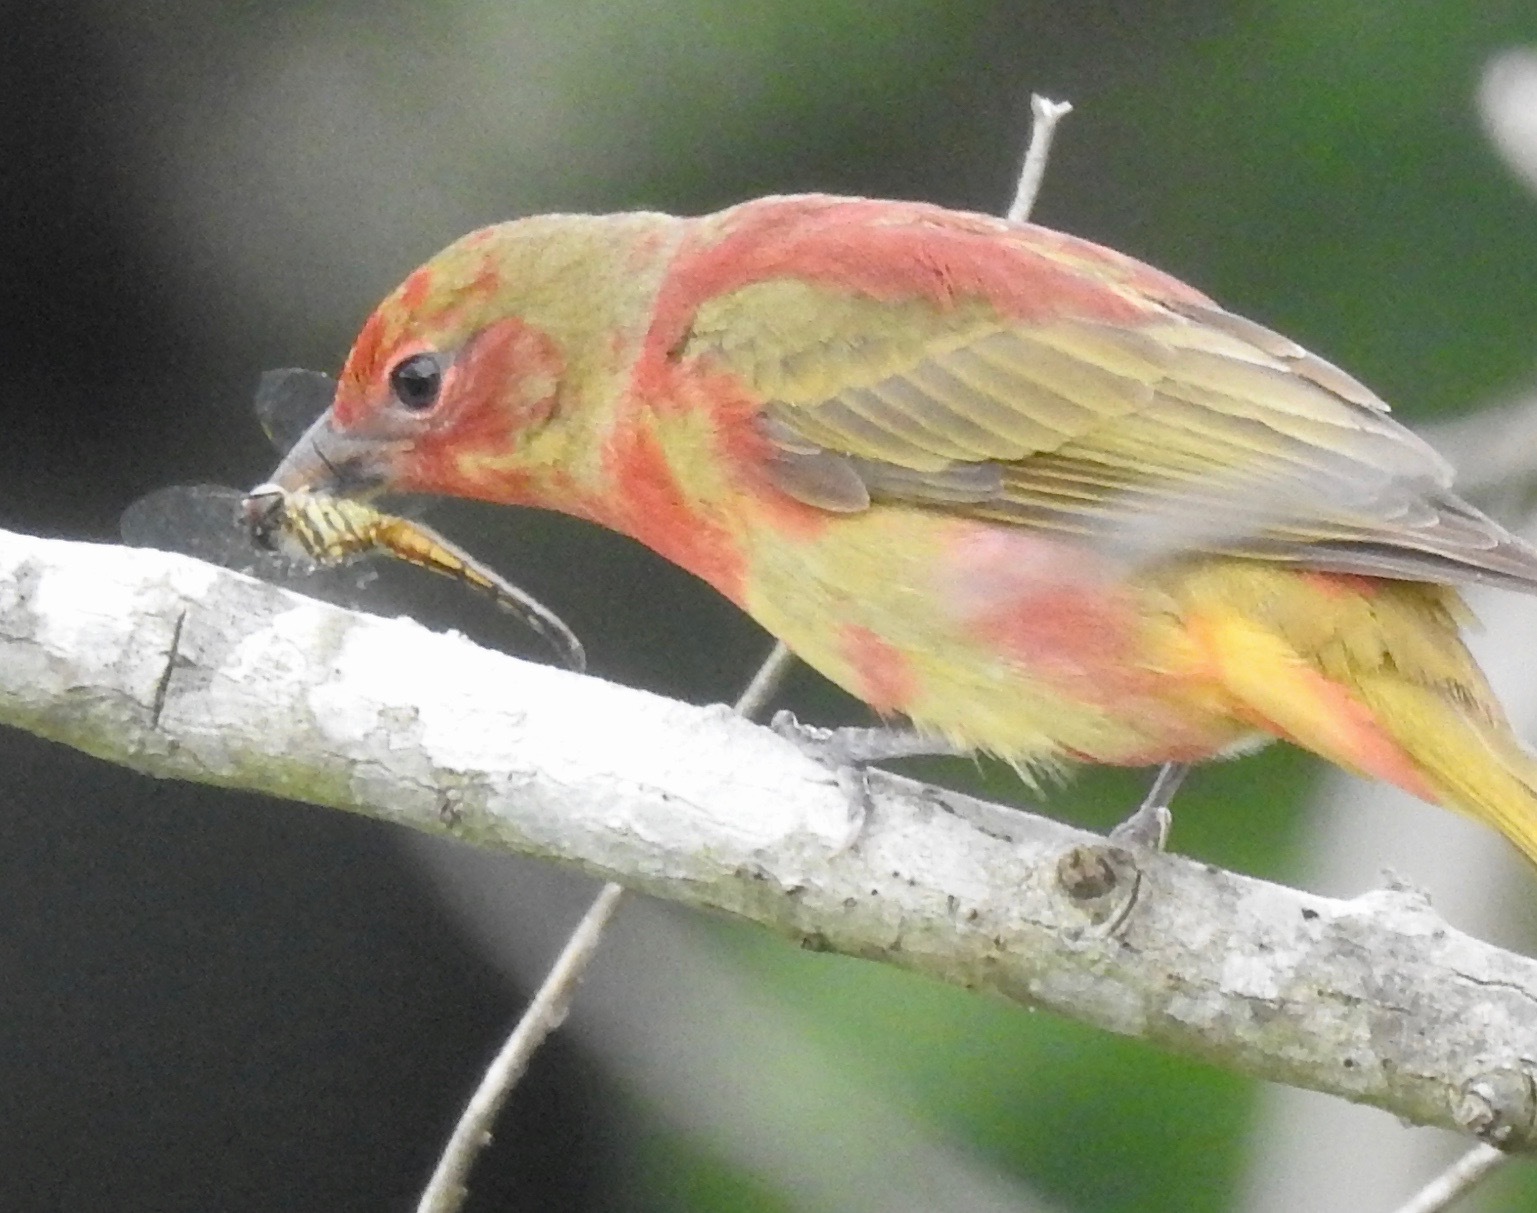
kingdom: Animalia
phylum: Arthropoda
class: Insecta
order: Odonata
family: Libellulidae
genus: Pachydiplax
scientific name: Pachydiplax longipennis
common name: Blue dasher
